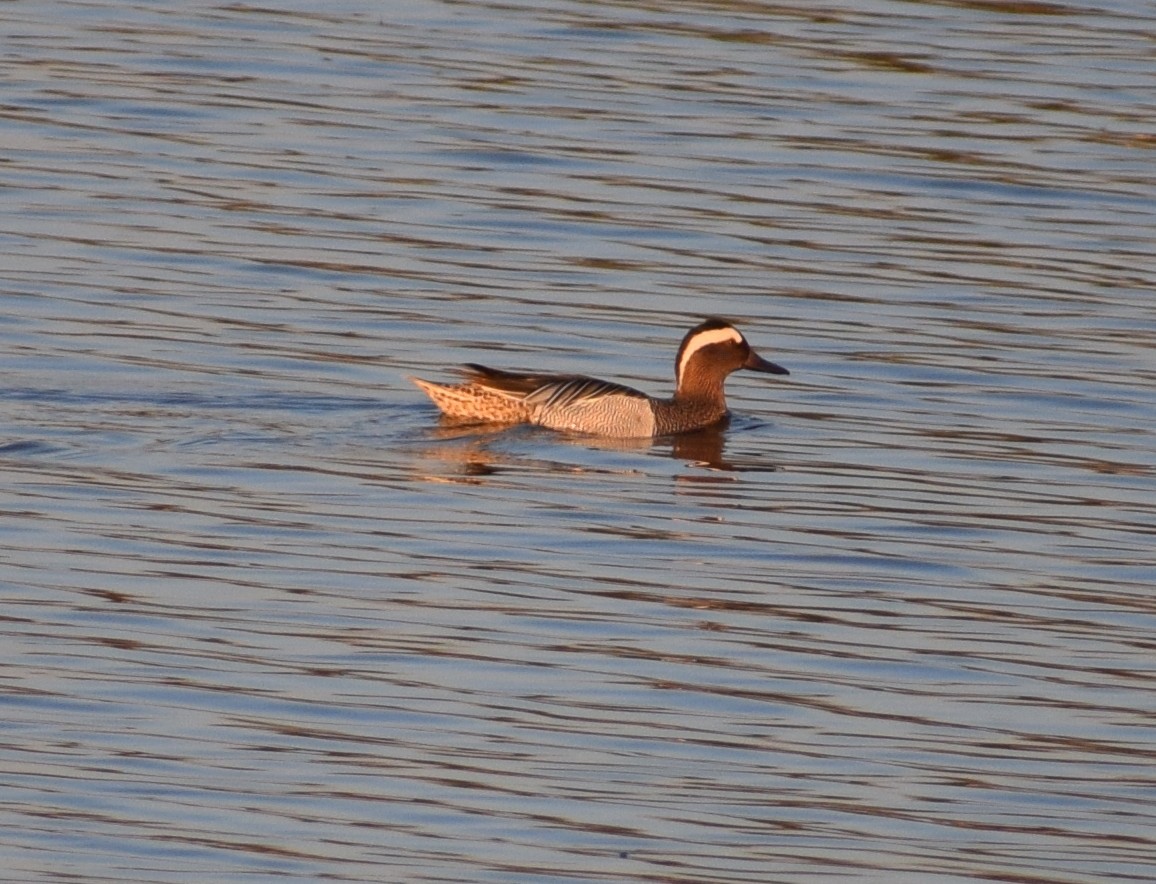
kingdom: Animalia
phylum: Chordata
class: Aves
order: Anseriformes
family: Anatidae
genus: Spatula
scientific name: Spatula querquedula
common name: Garganey
